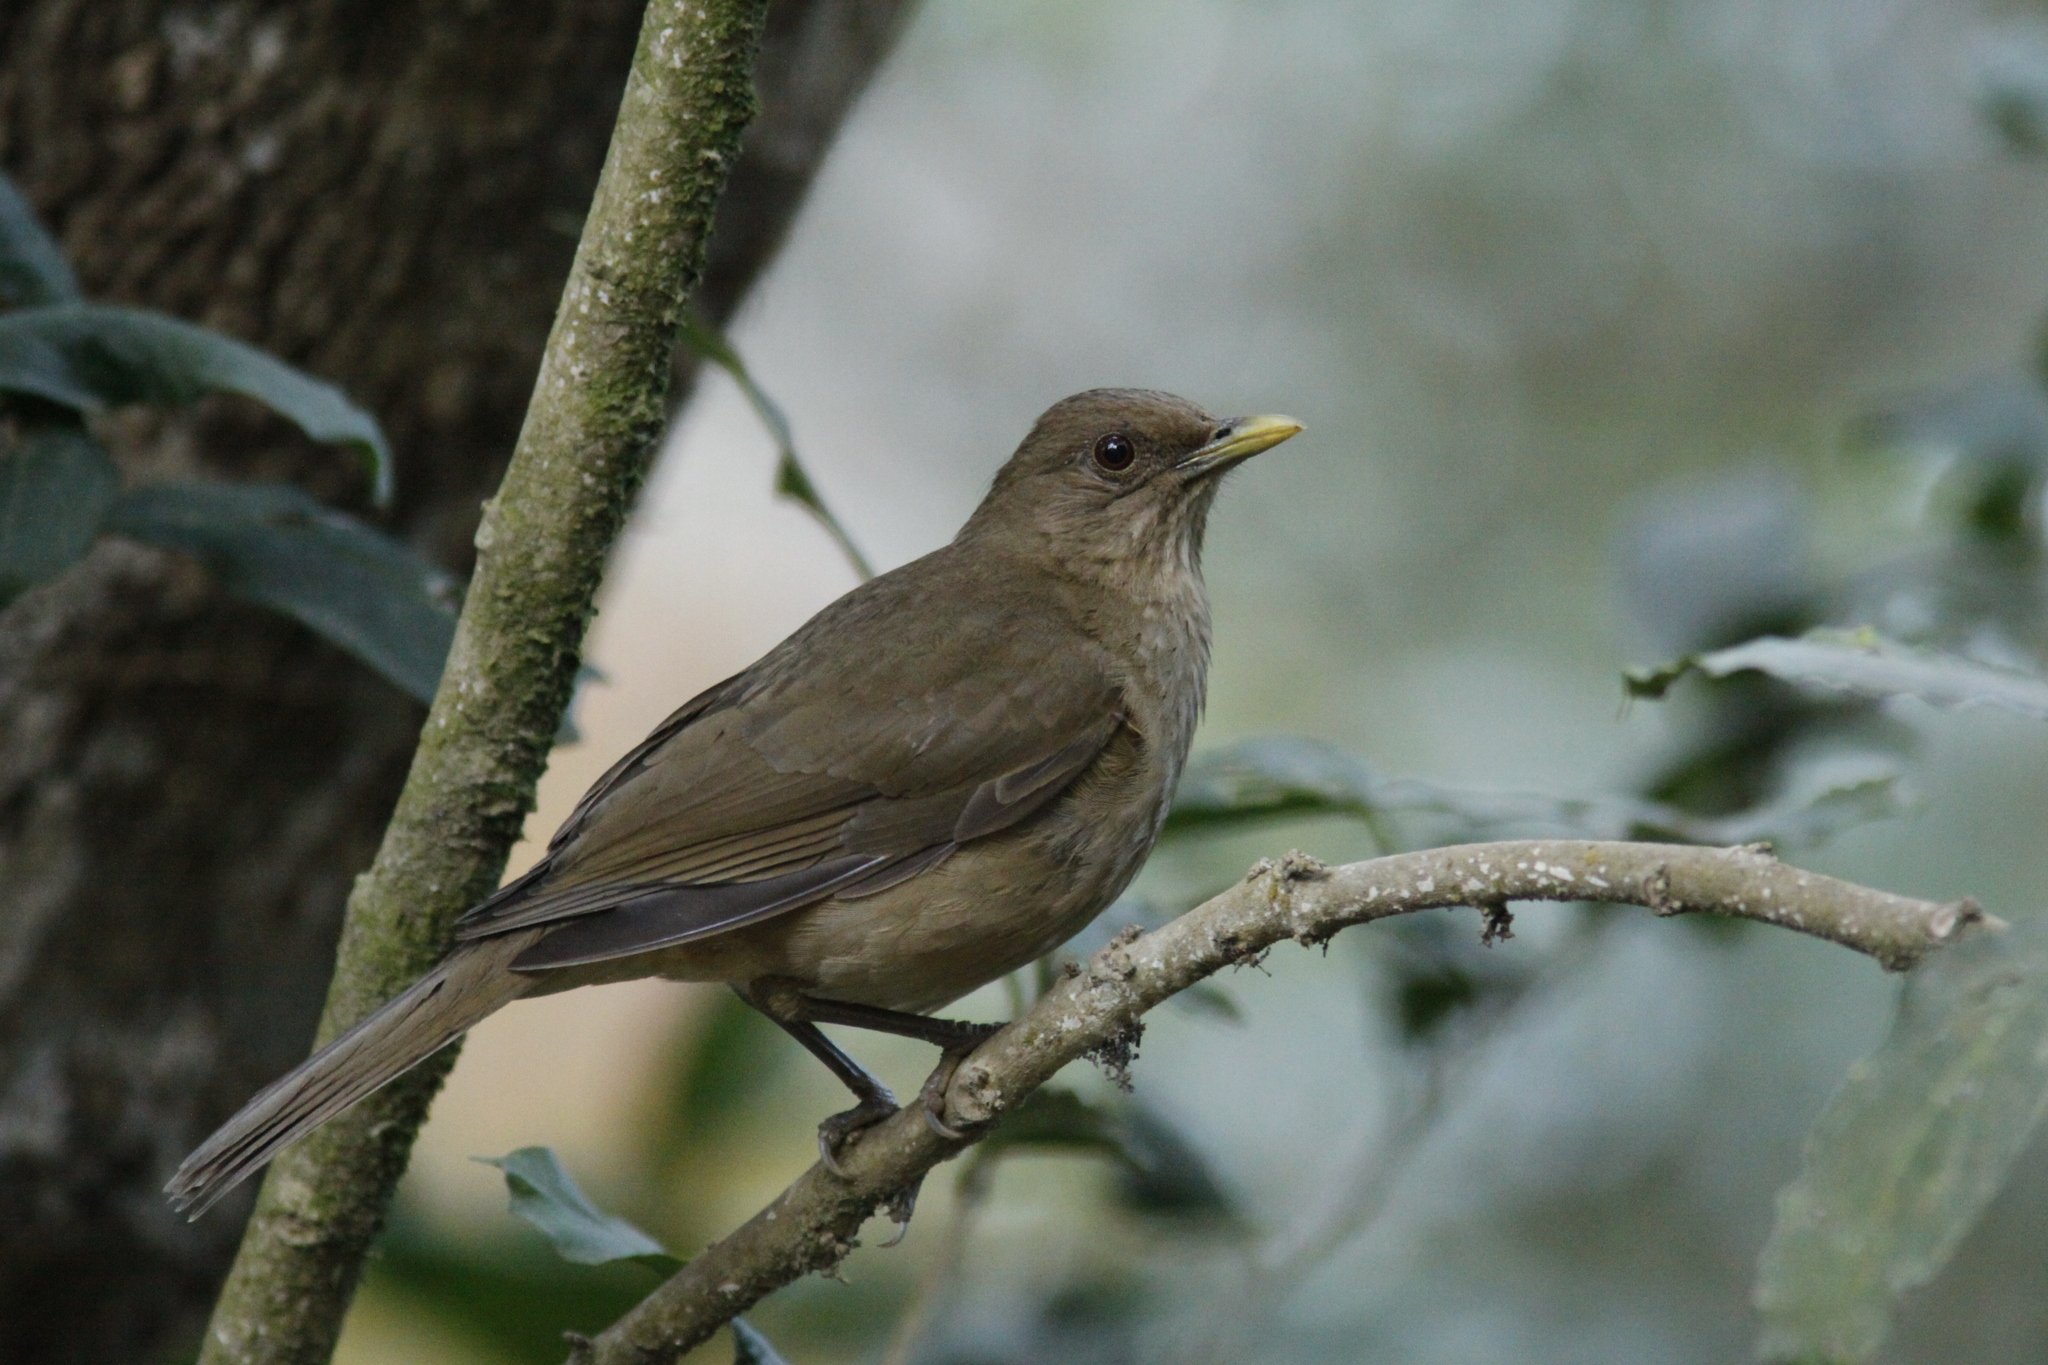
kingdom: Animalia
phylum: Chordata
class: Aves
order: Passeriformes
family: Turdidae
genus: Turdus
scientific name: Turdus grayi
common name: Clay-colored thrush
